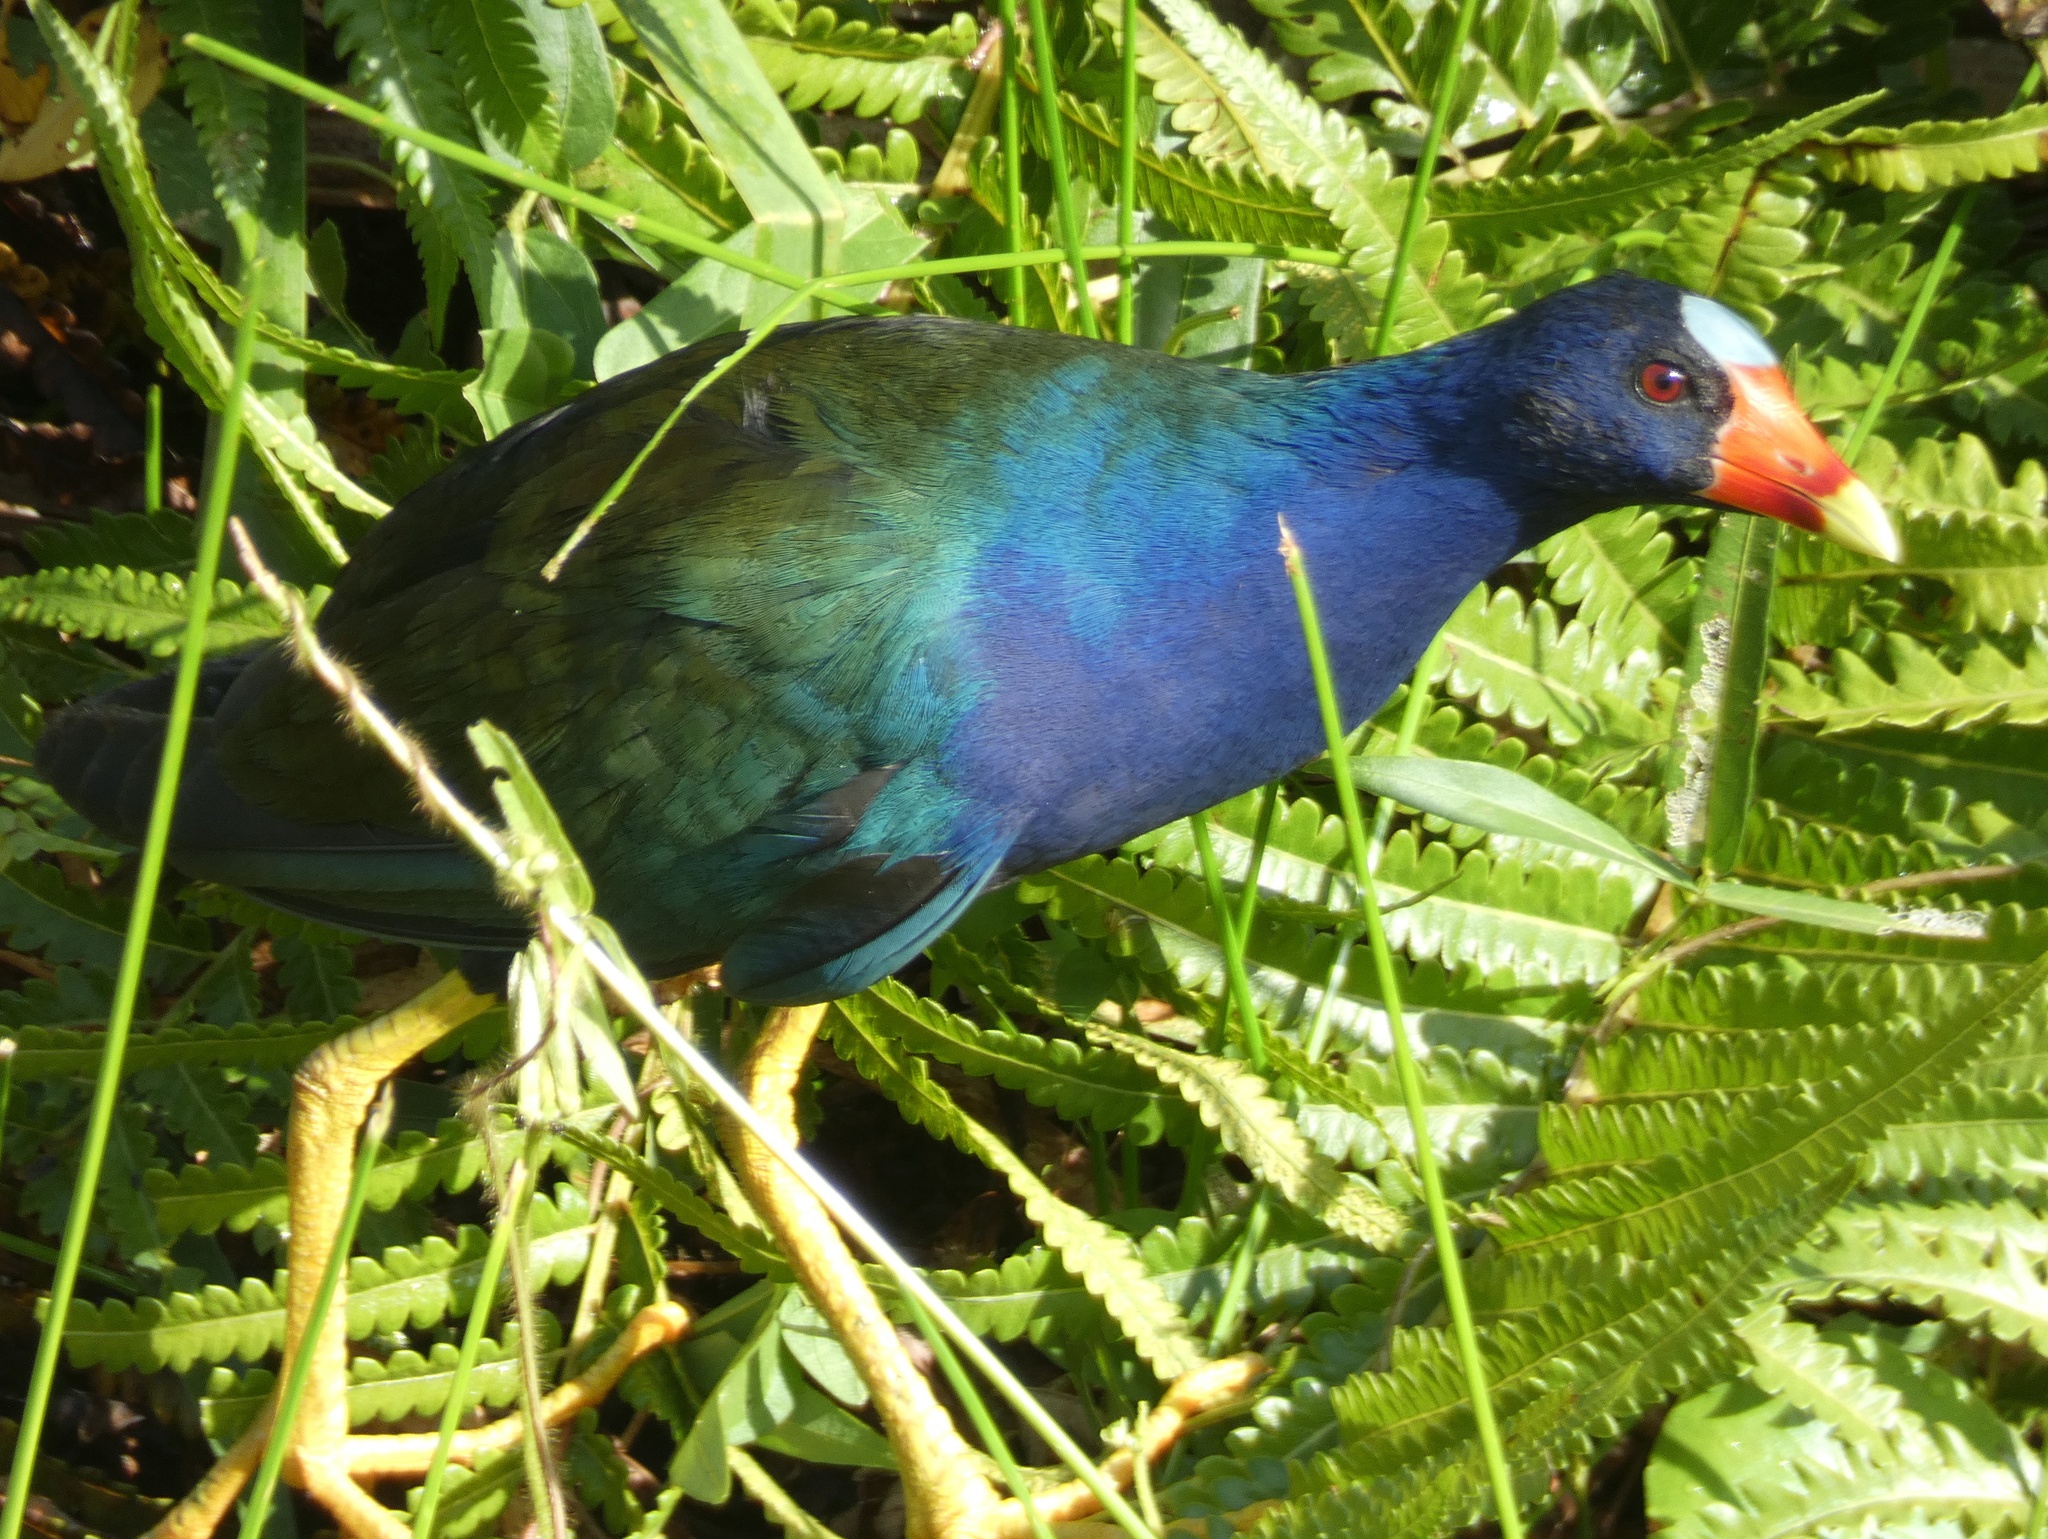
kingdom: Animalia
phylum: Chordata
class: Aves
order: Gruiformes
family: Rallidae
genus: Porphyrio
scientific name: Porphyrio martinica
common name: Purple gallinule
